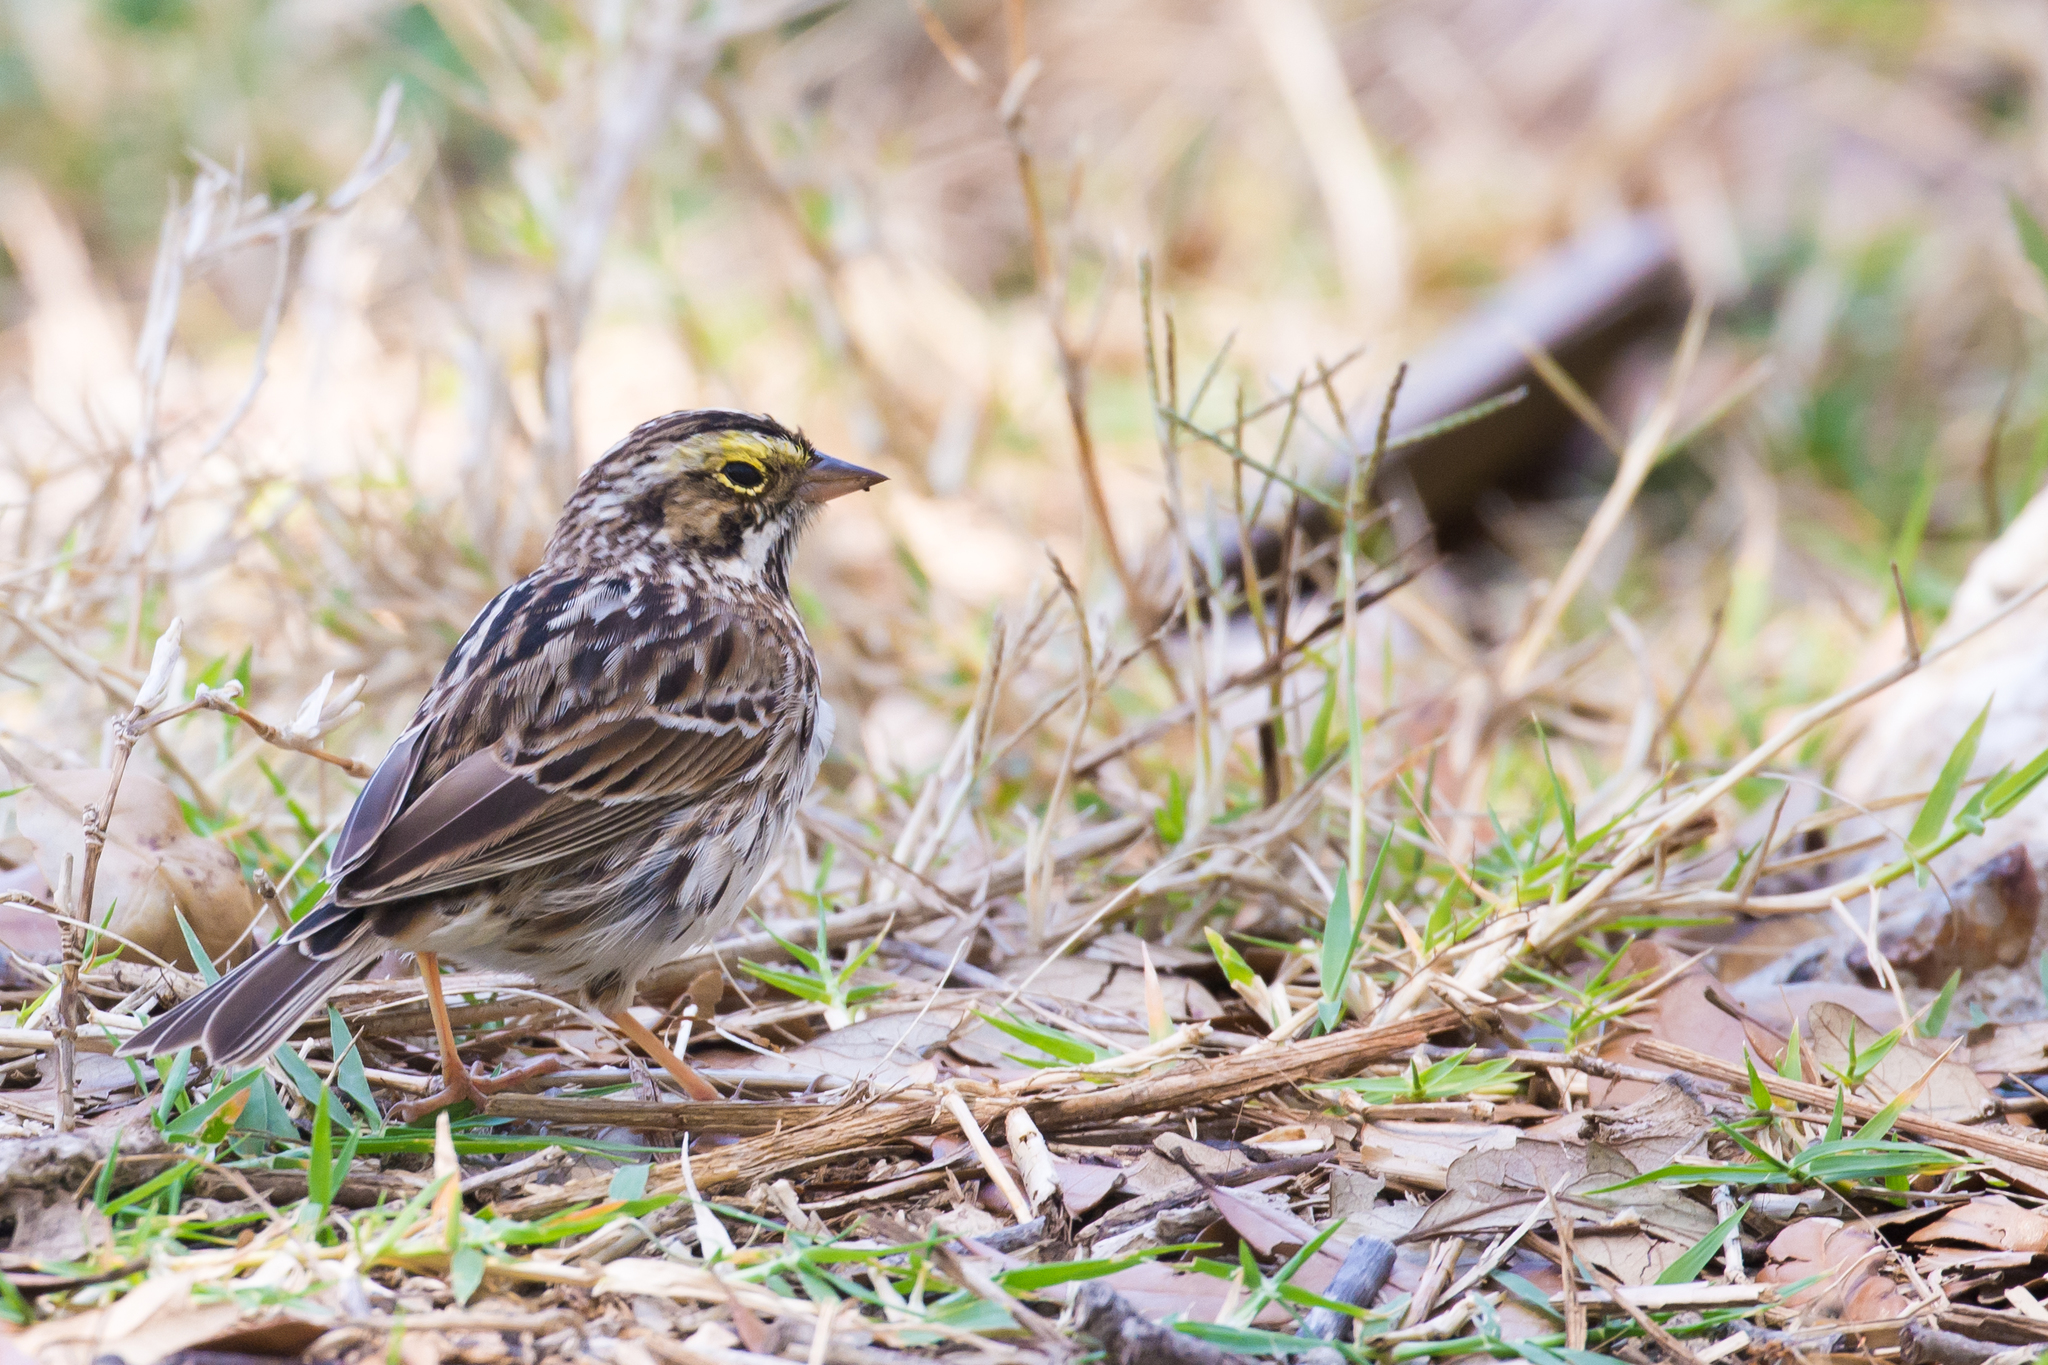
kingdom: Animalia
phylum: Chordata
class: Aves
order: Passeriformes
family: Passerellidae
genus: Passerculus
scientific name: Passerculus sandwichensis
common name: Savannah sparrow
